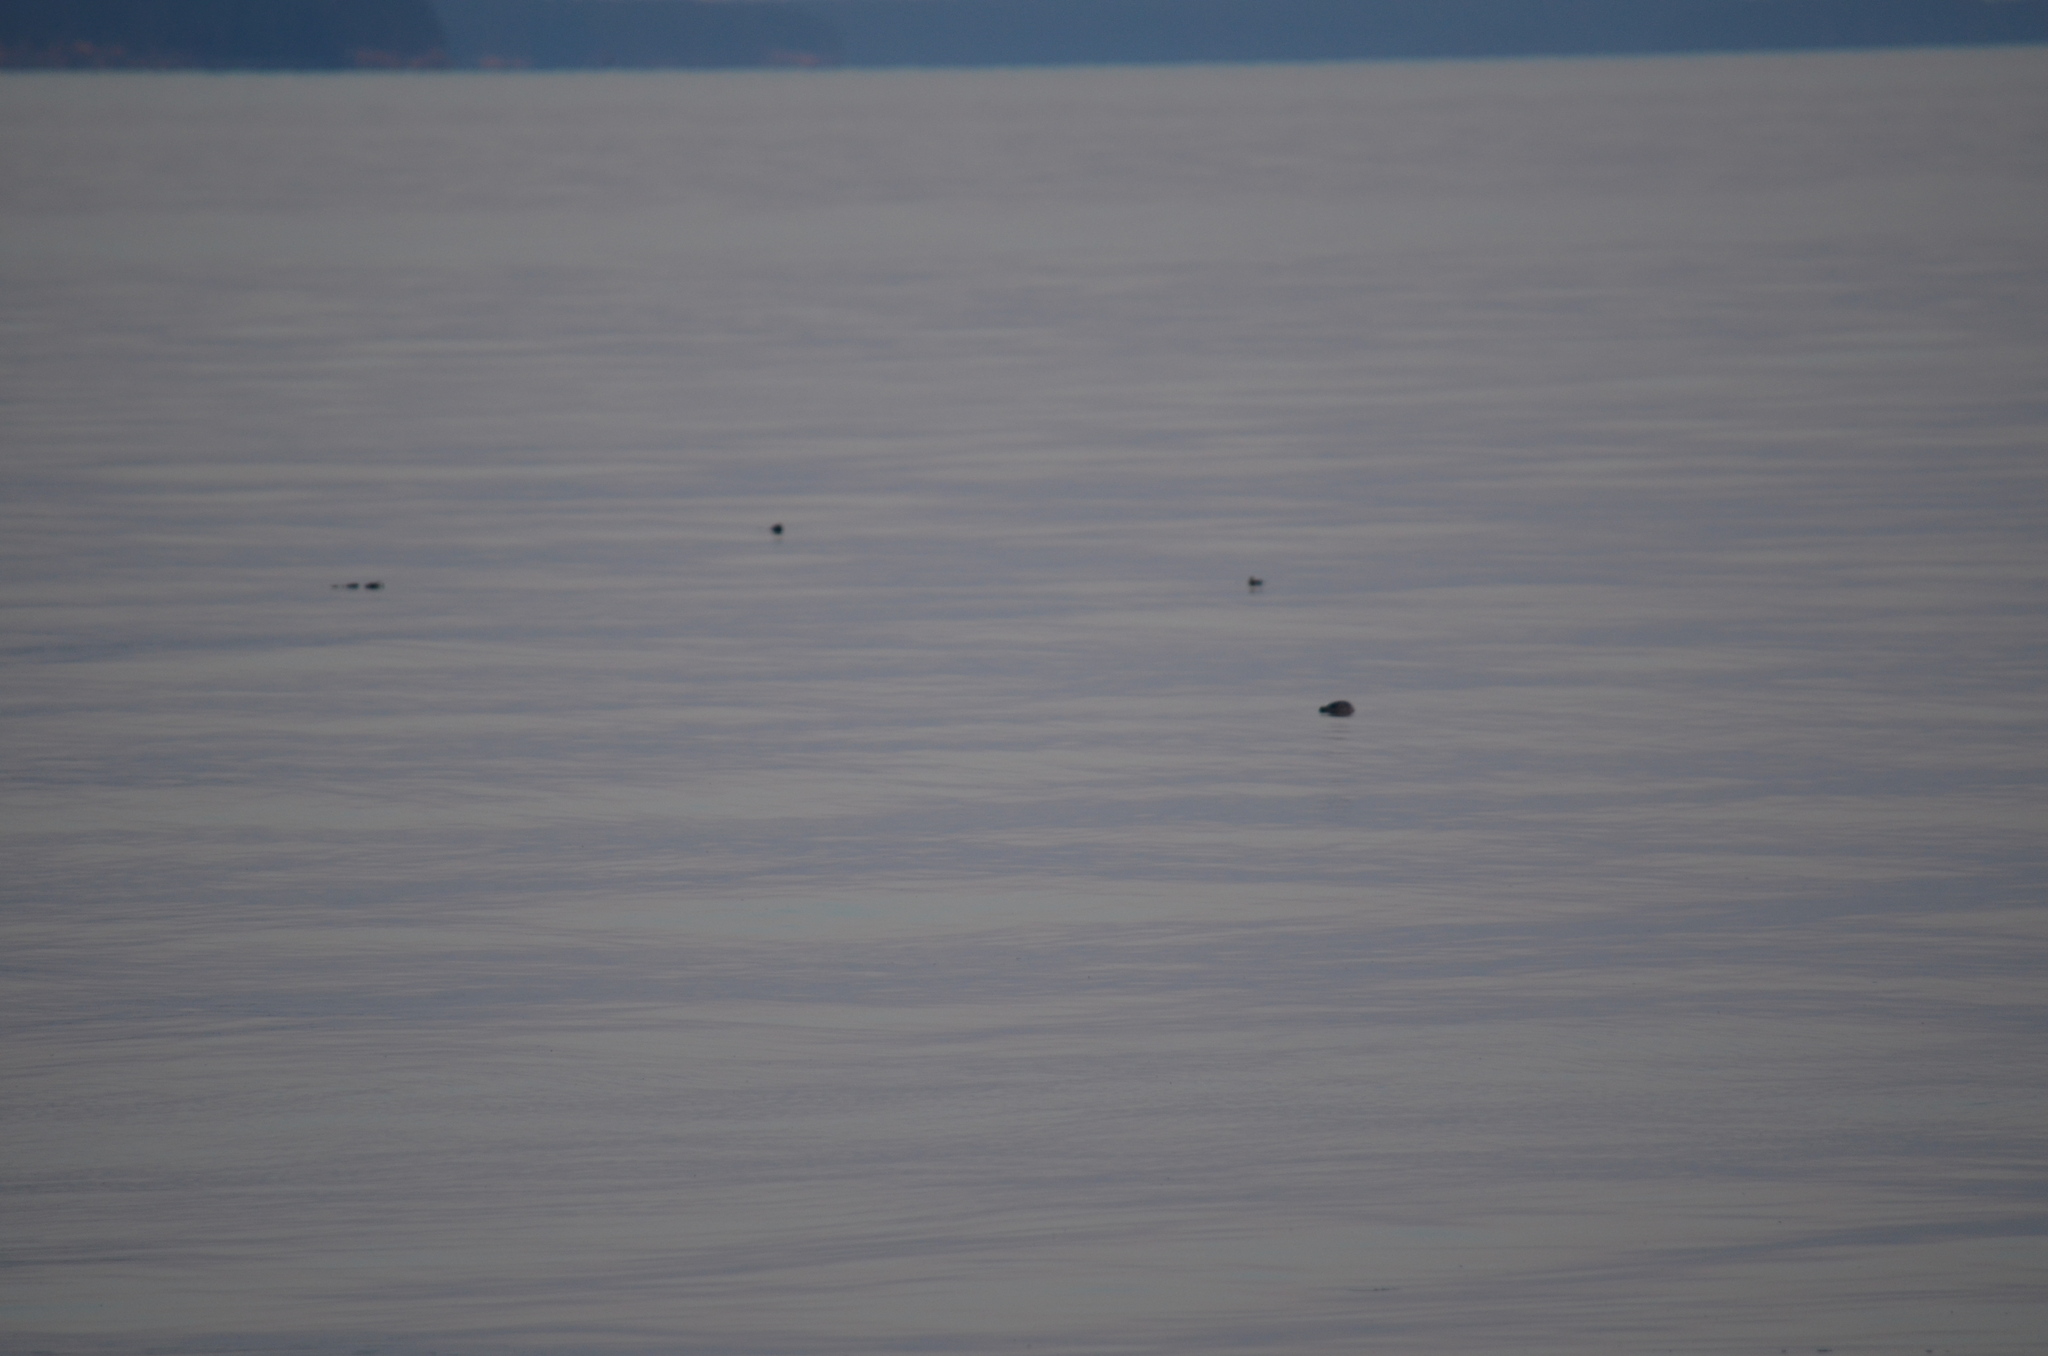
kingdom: Animalia
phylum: Chordata
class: Mammalia
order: Carnivora
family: Phocidae
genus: Phoca
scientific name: Phoca vitulina
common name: Harbor seal
